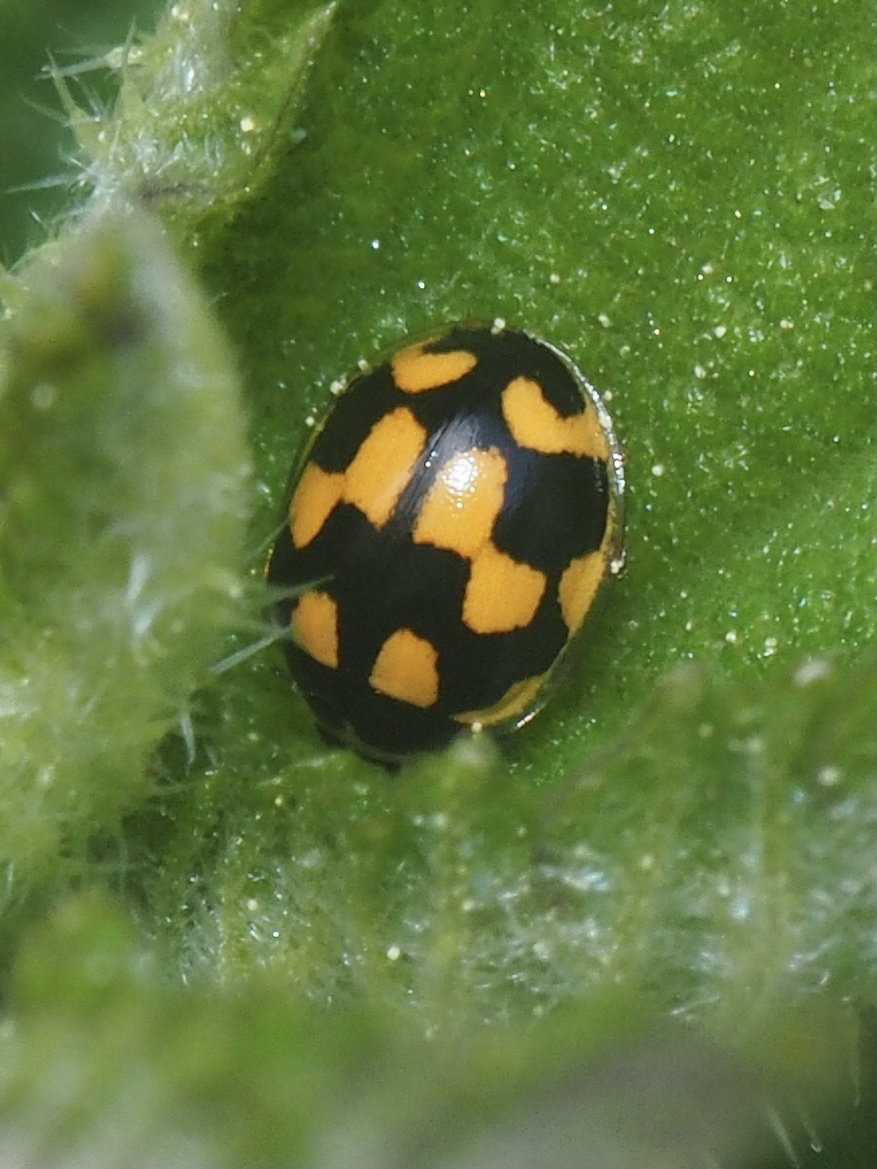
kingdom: Animalia
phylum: Arthropoda
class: Insecta
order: Coleoptera
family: Coccinellidae
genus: Propylaea
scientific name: Propylaea quatuordecimpunctata
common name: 14-spotted ladybird beetle
